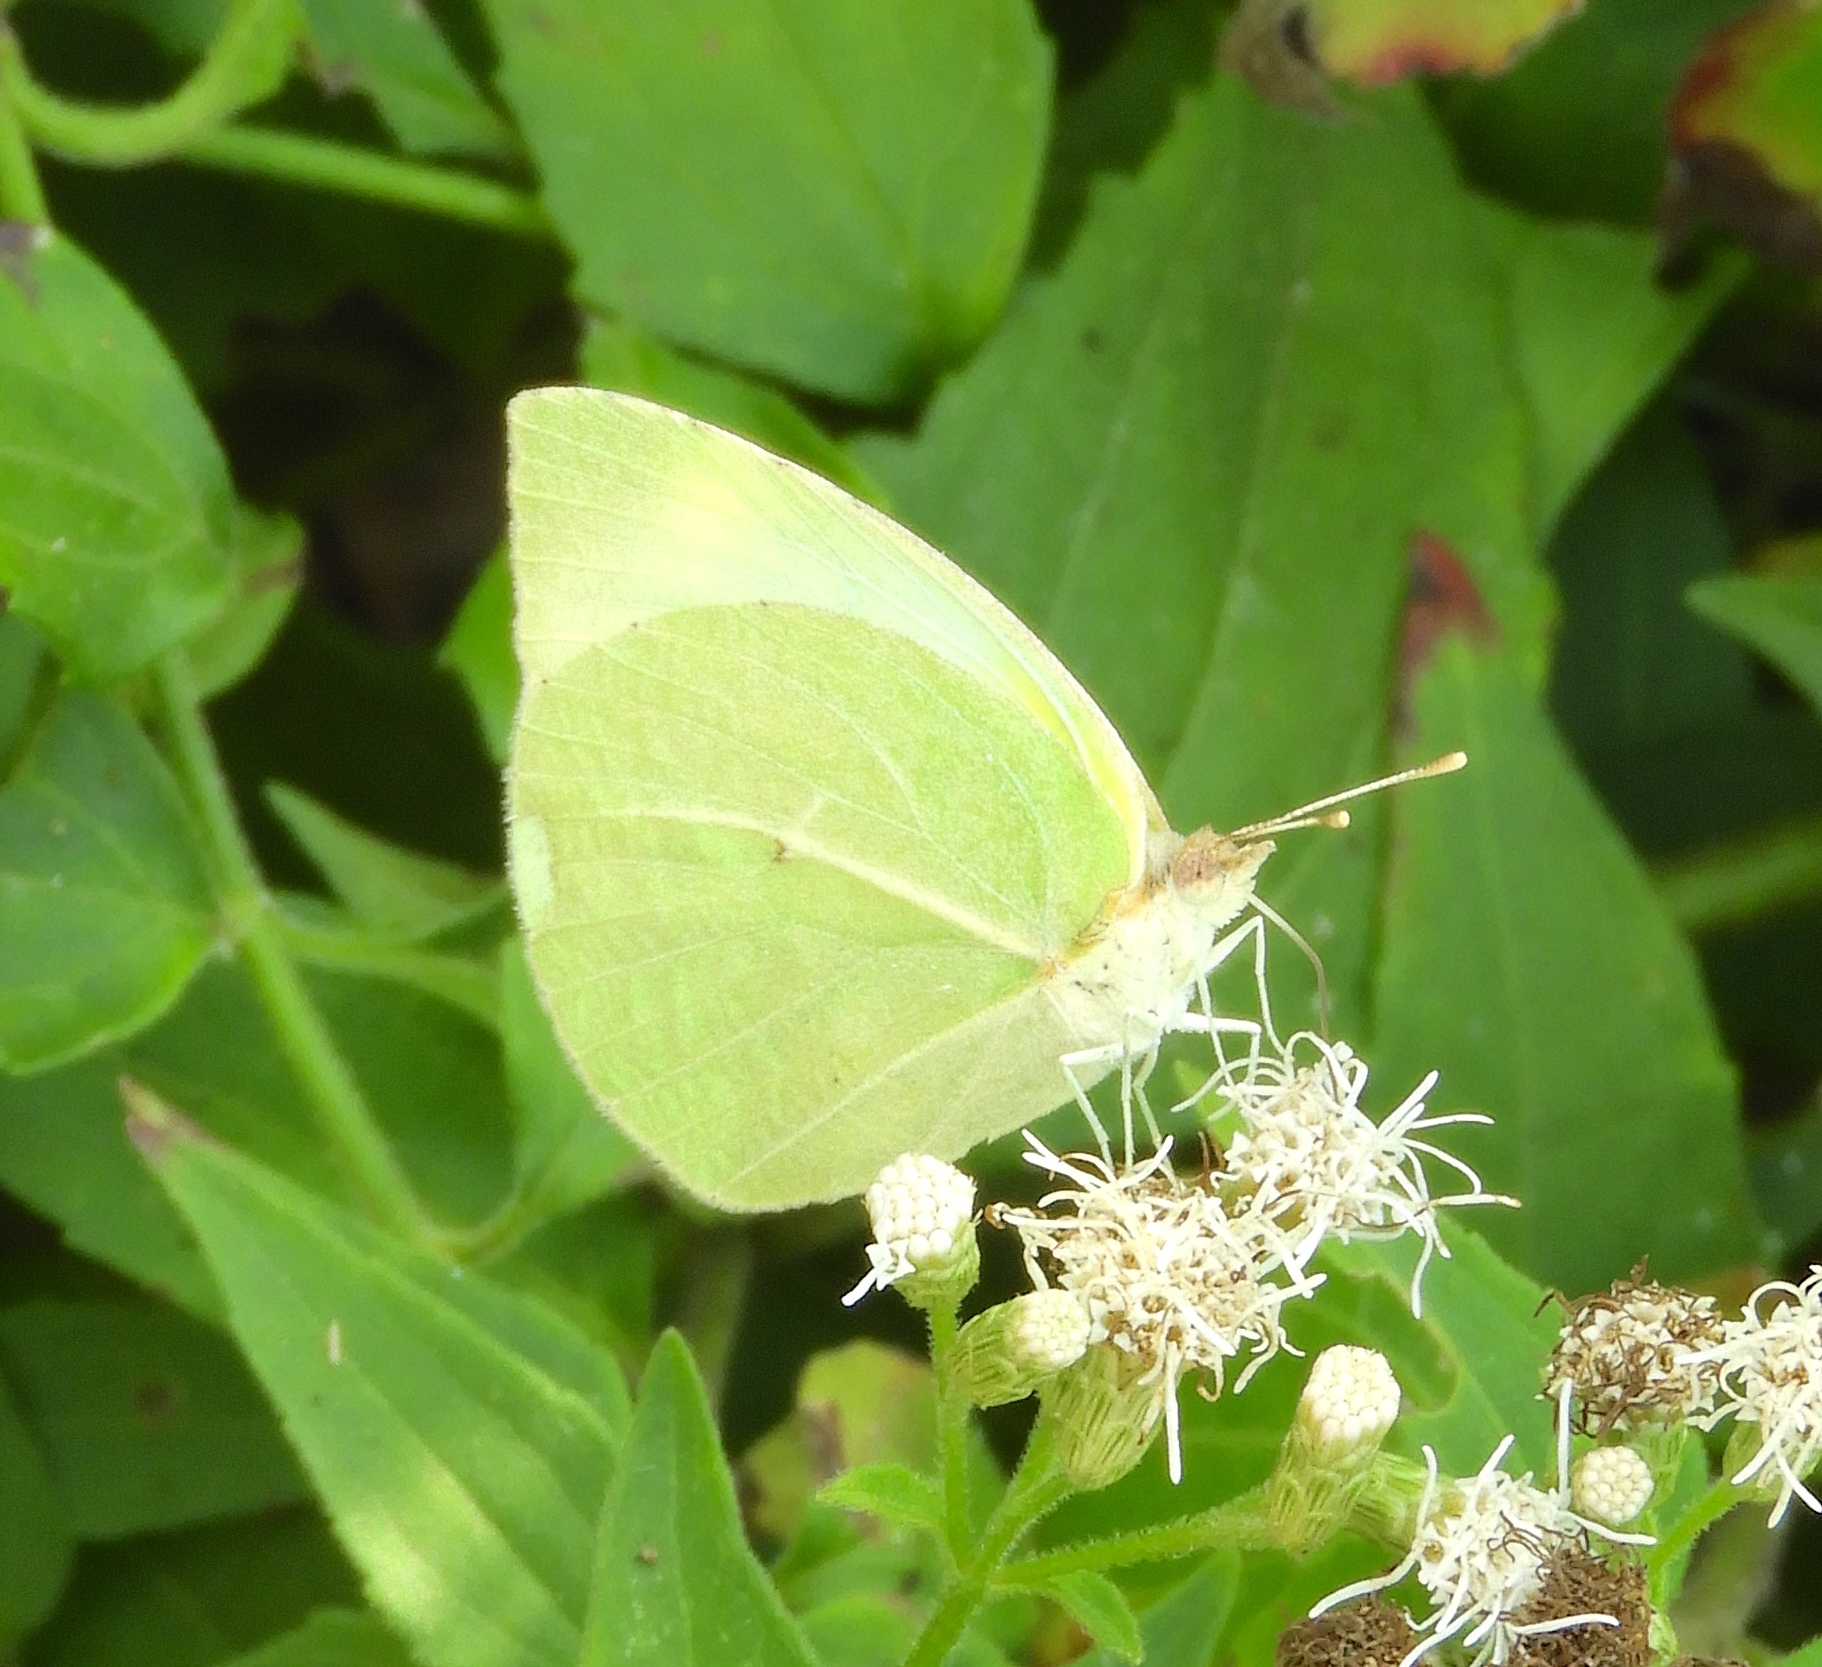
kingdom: Animalia
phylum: Arthropoda
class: Insecta
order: Lepidoptera
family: Pieridae
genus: Kricogonia
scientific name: Kricogonia lyside
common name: Guayacan sulphur,
